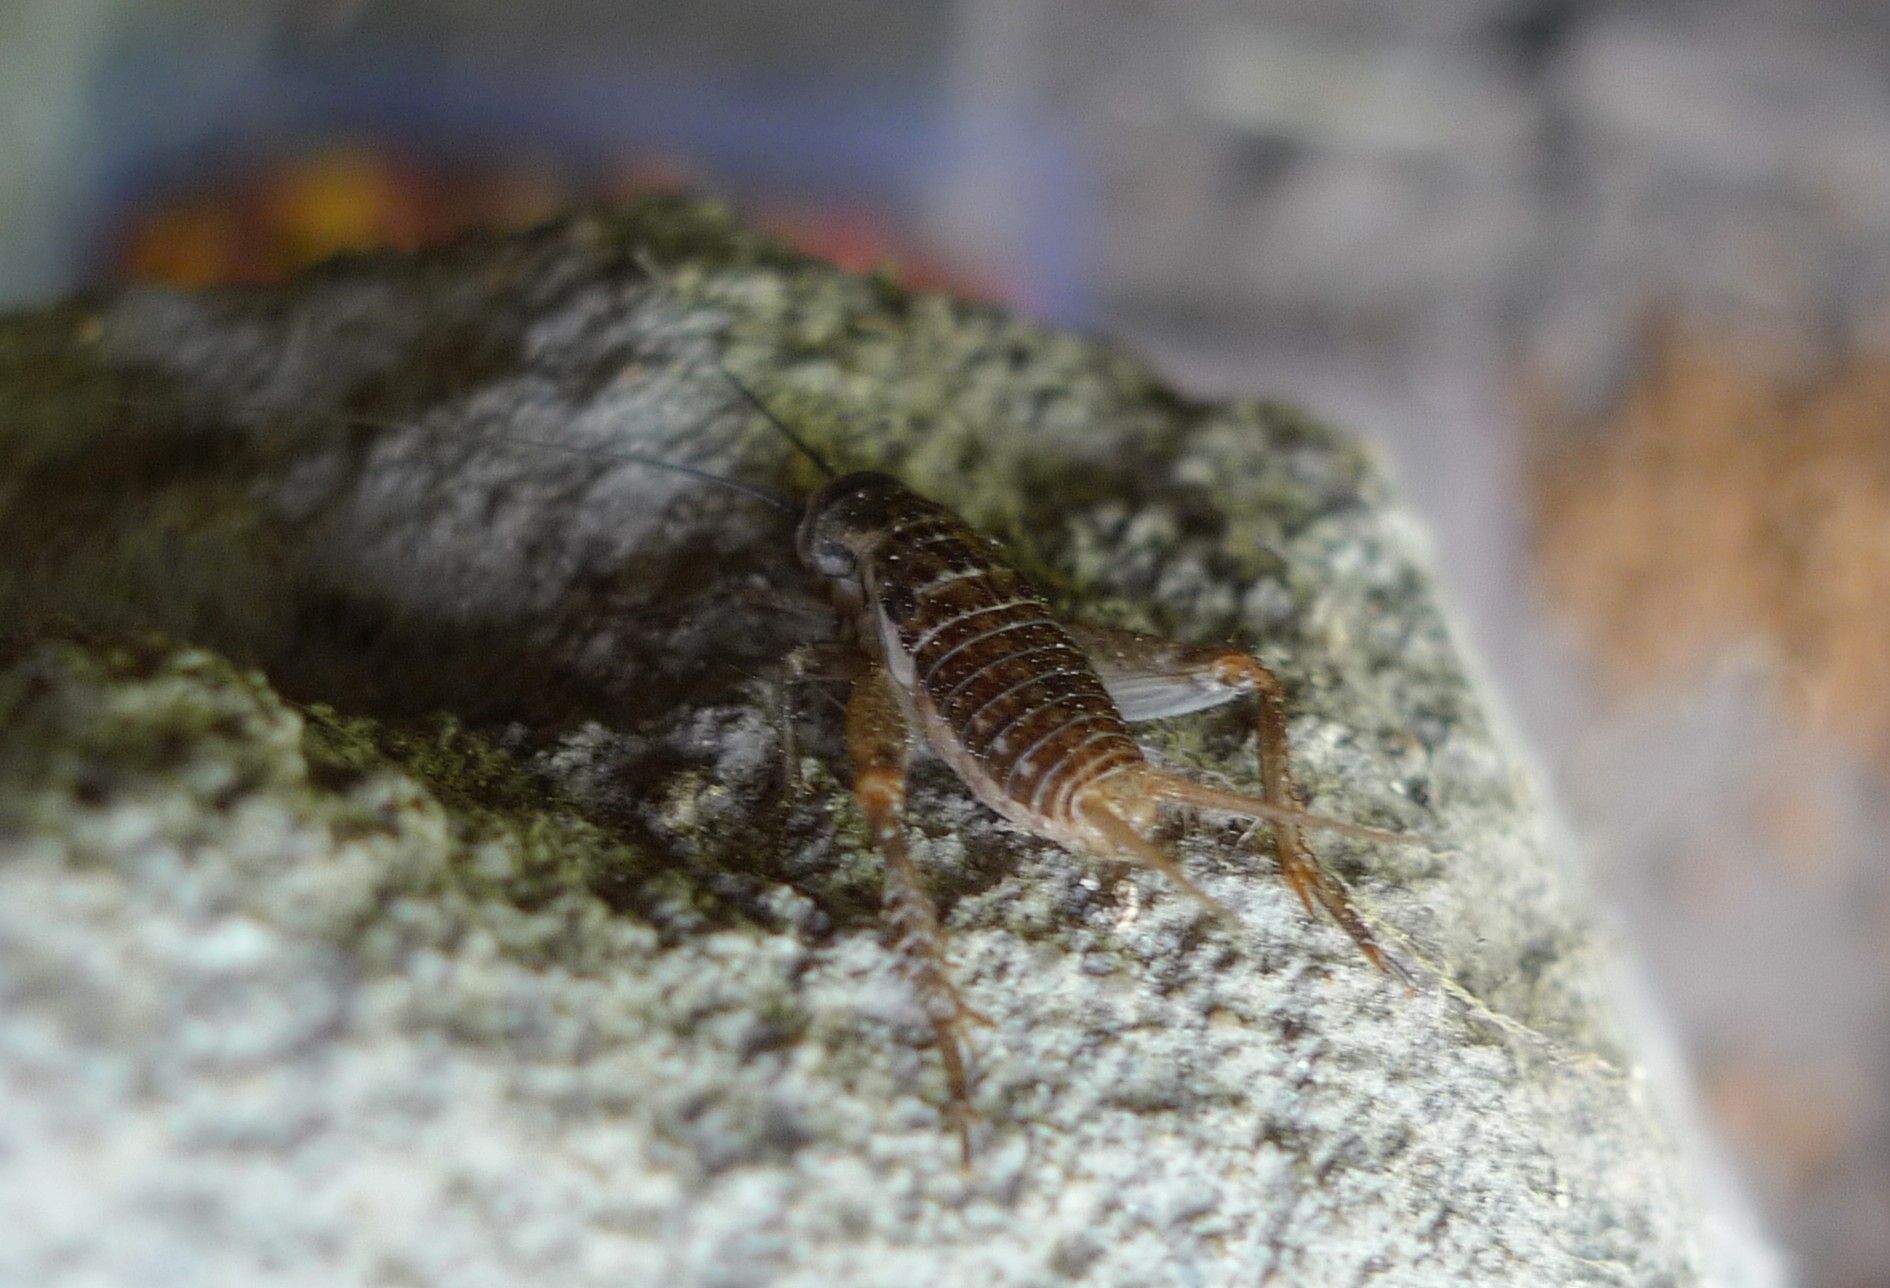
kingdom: Animalia
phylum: Arthropoda
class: Insecta
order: Orthoptera
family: Gryllidae
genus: Acheta
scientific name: Acheta domesticus
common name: House cricket
